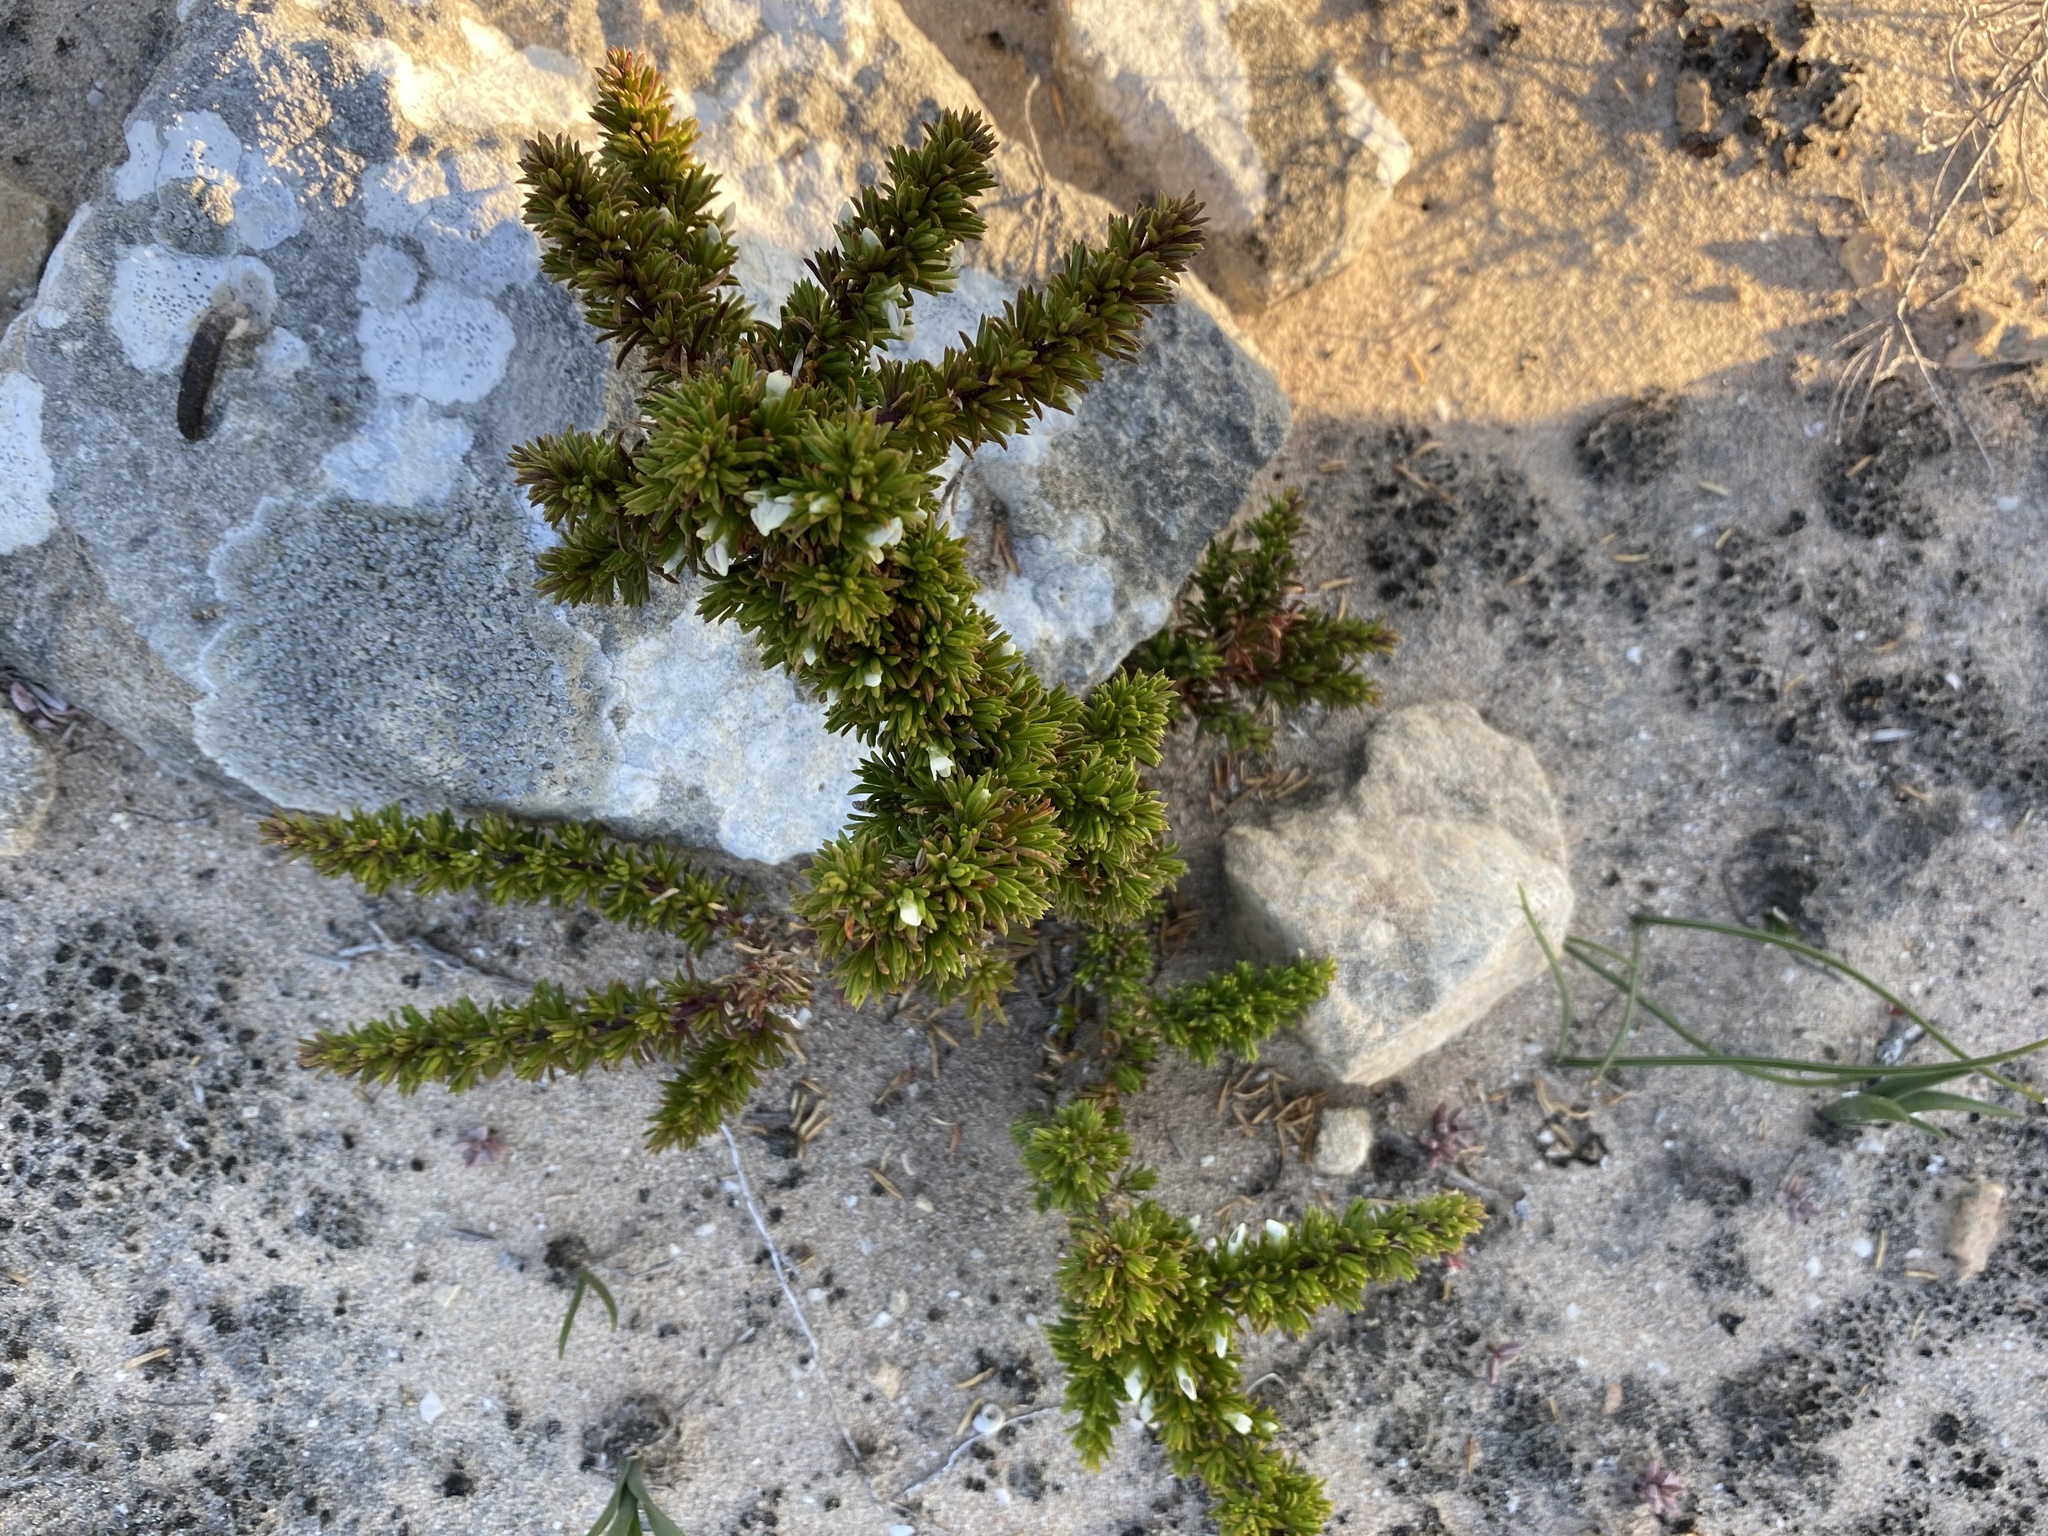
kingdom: Plantae
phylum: Tracheophyta
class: Magnoliopsida
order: Fabales
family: Polygalaceae
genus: Muraltia
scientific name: Muraltia pappeana
